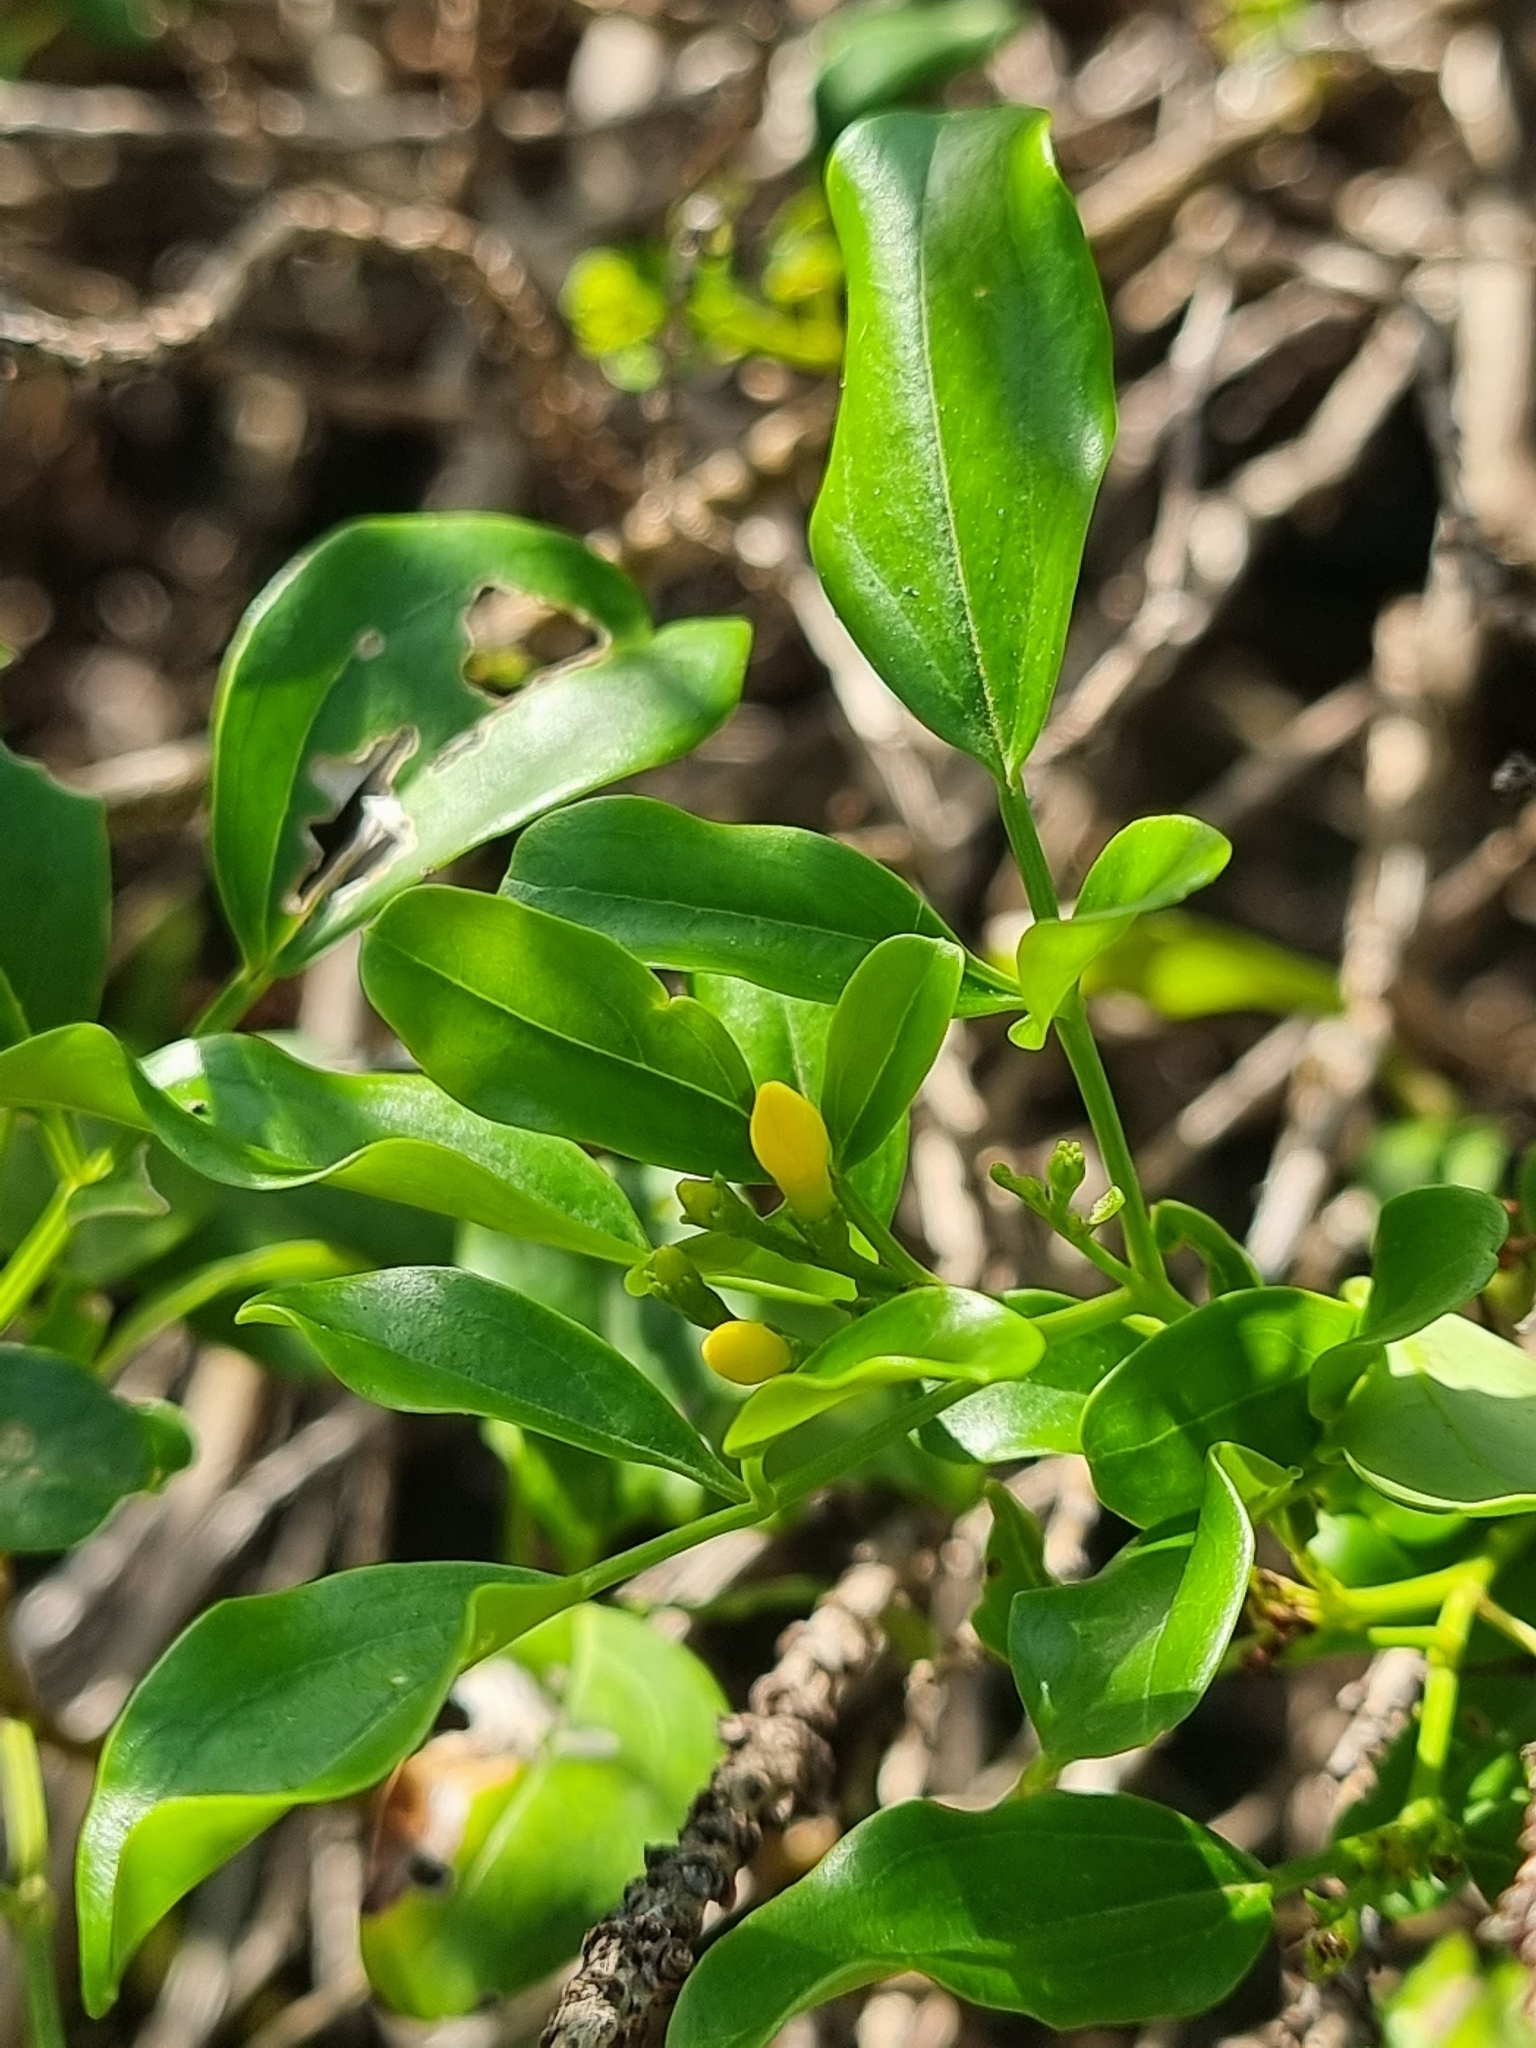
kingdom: Plantae
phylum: Tracheophyta
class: Magnoliopsida
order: Lamiales
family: Oleaceae
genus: Chrysojasminum
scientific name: Chrysojasminum odoratissimum
